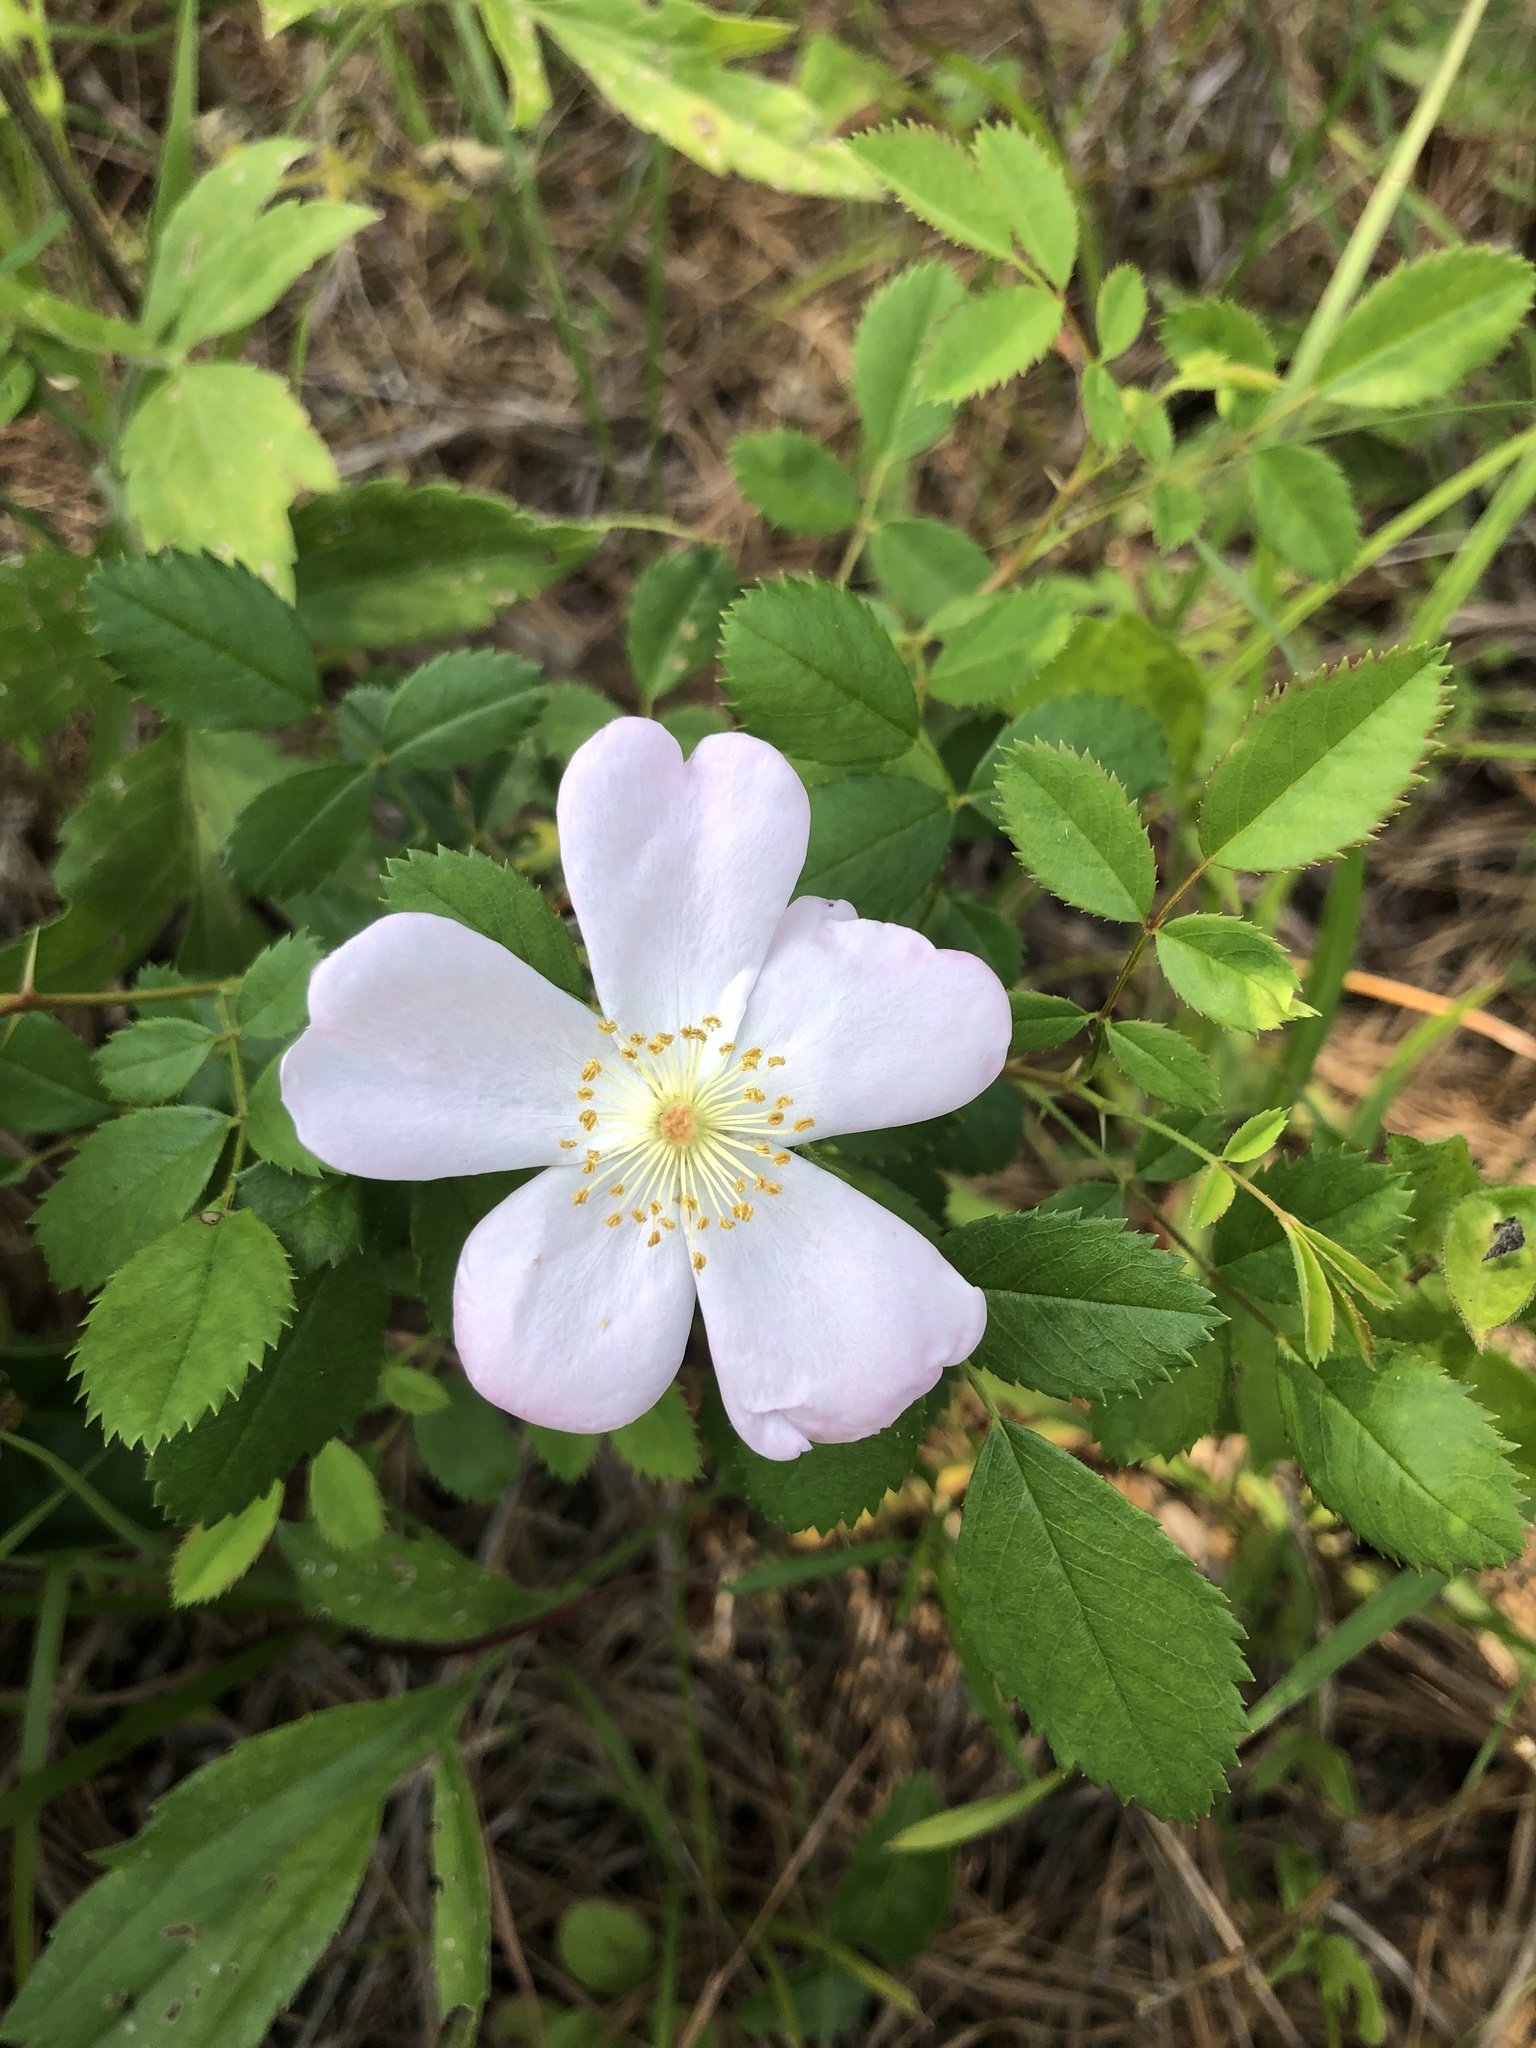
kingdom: Plantae
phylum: Tracheophyta
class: Magnoliopsida
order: Rosales
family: Rosaceae
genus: Rosa
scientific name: Rosa carolina
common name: Pasture rose
